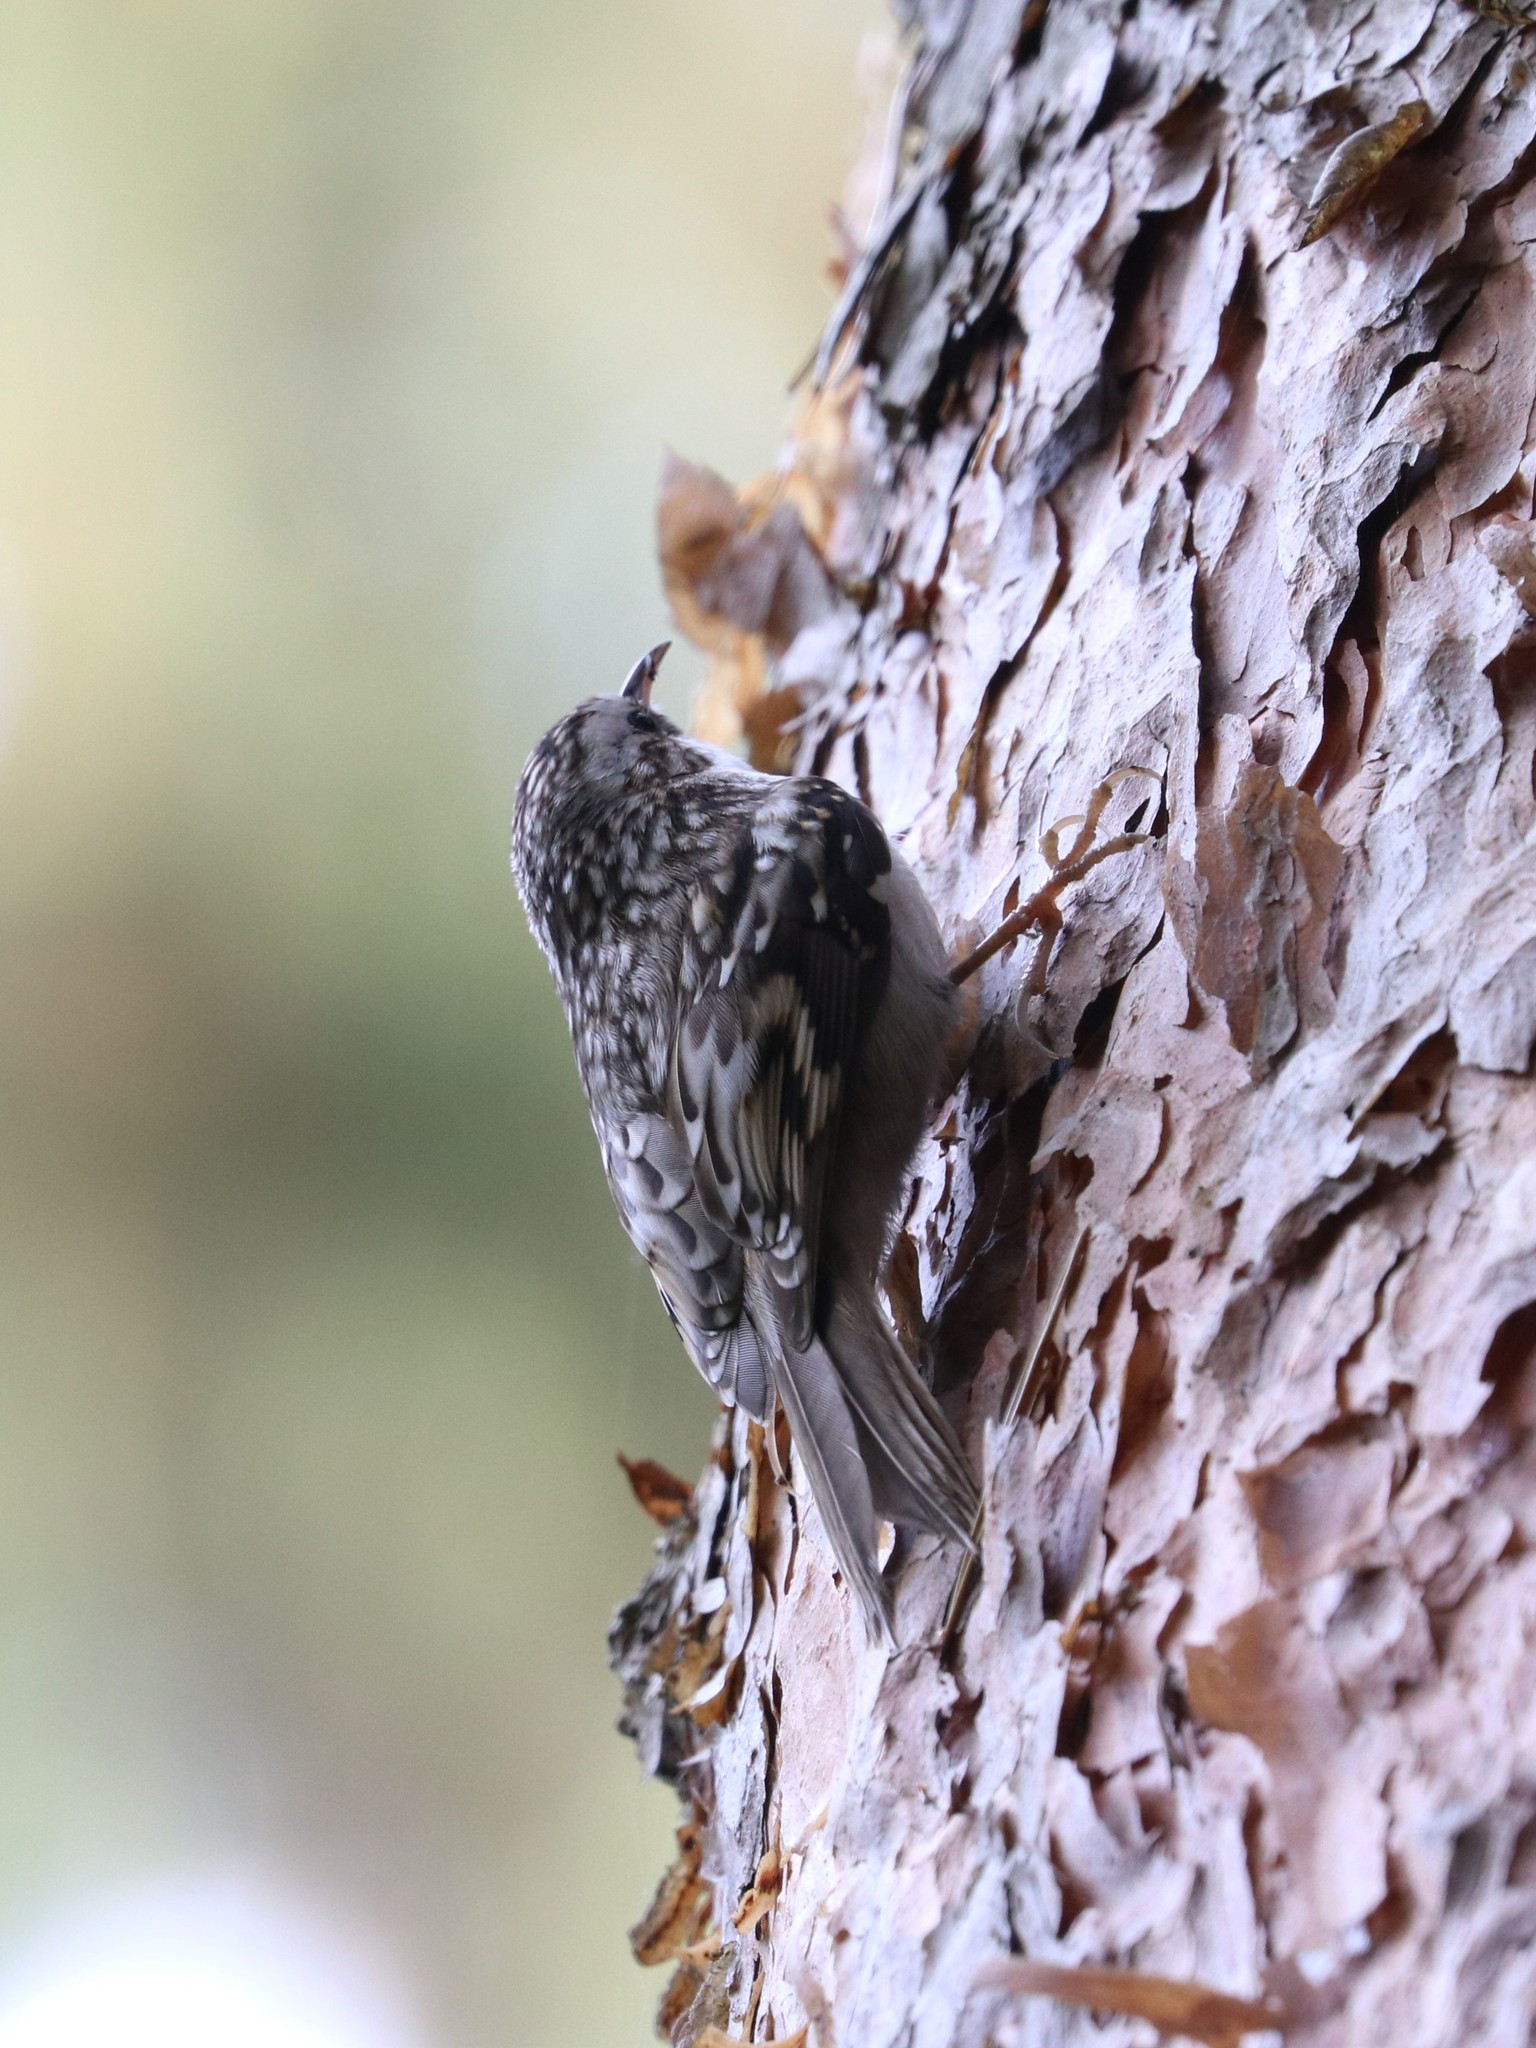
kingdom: Animalia
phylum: Chordata
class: Aves
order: Passeriformes
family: Certhiidae
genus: Certhia
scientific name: Certhia familiaris
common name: Eurasian treecreeper
